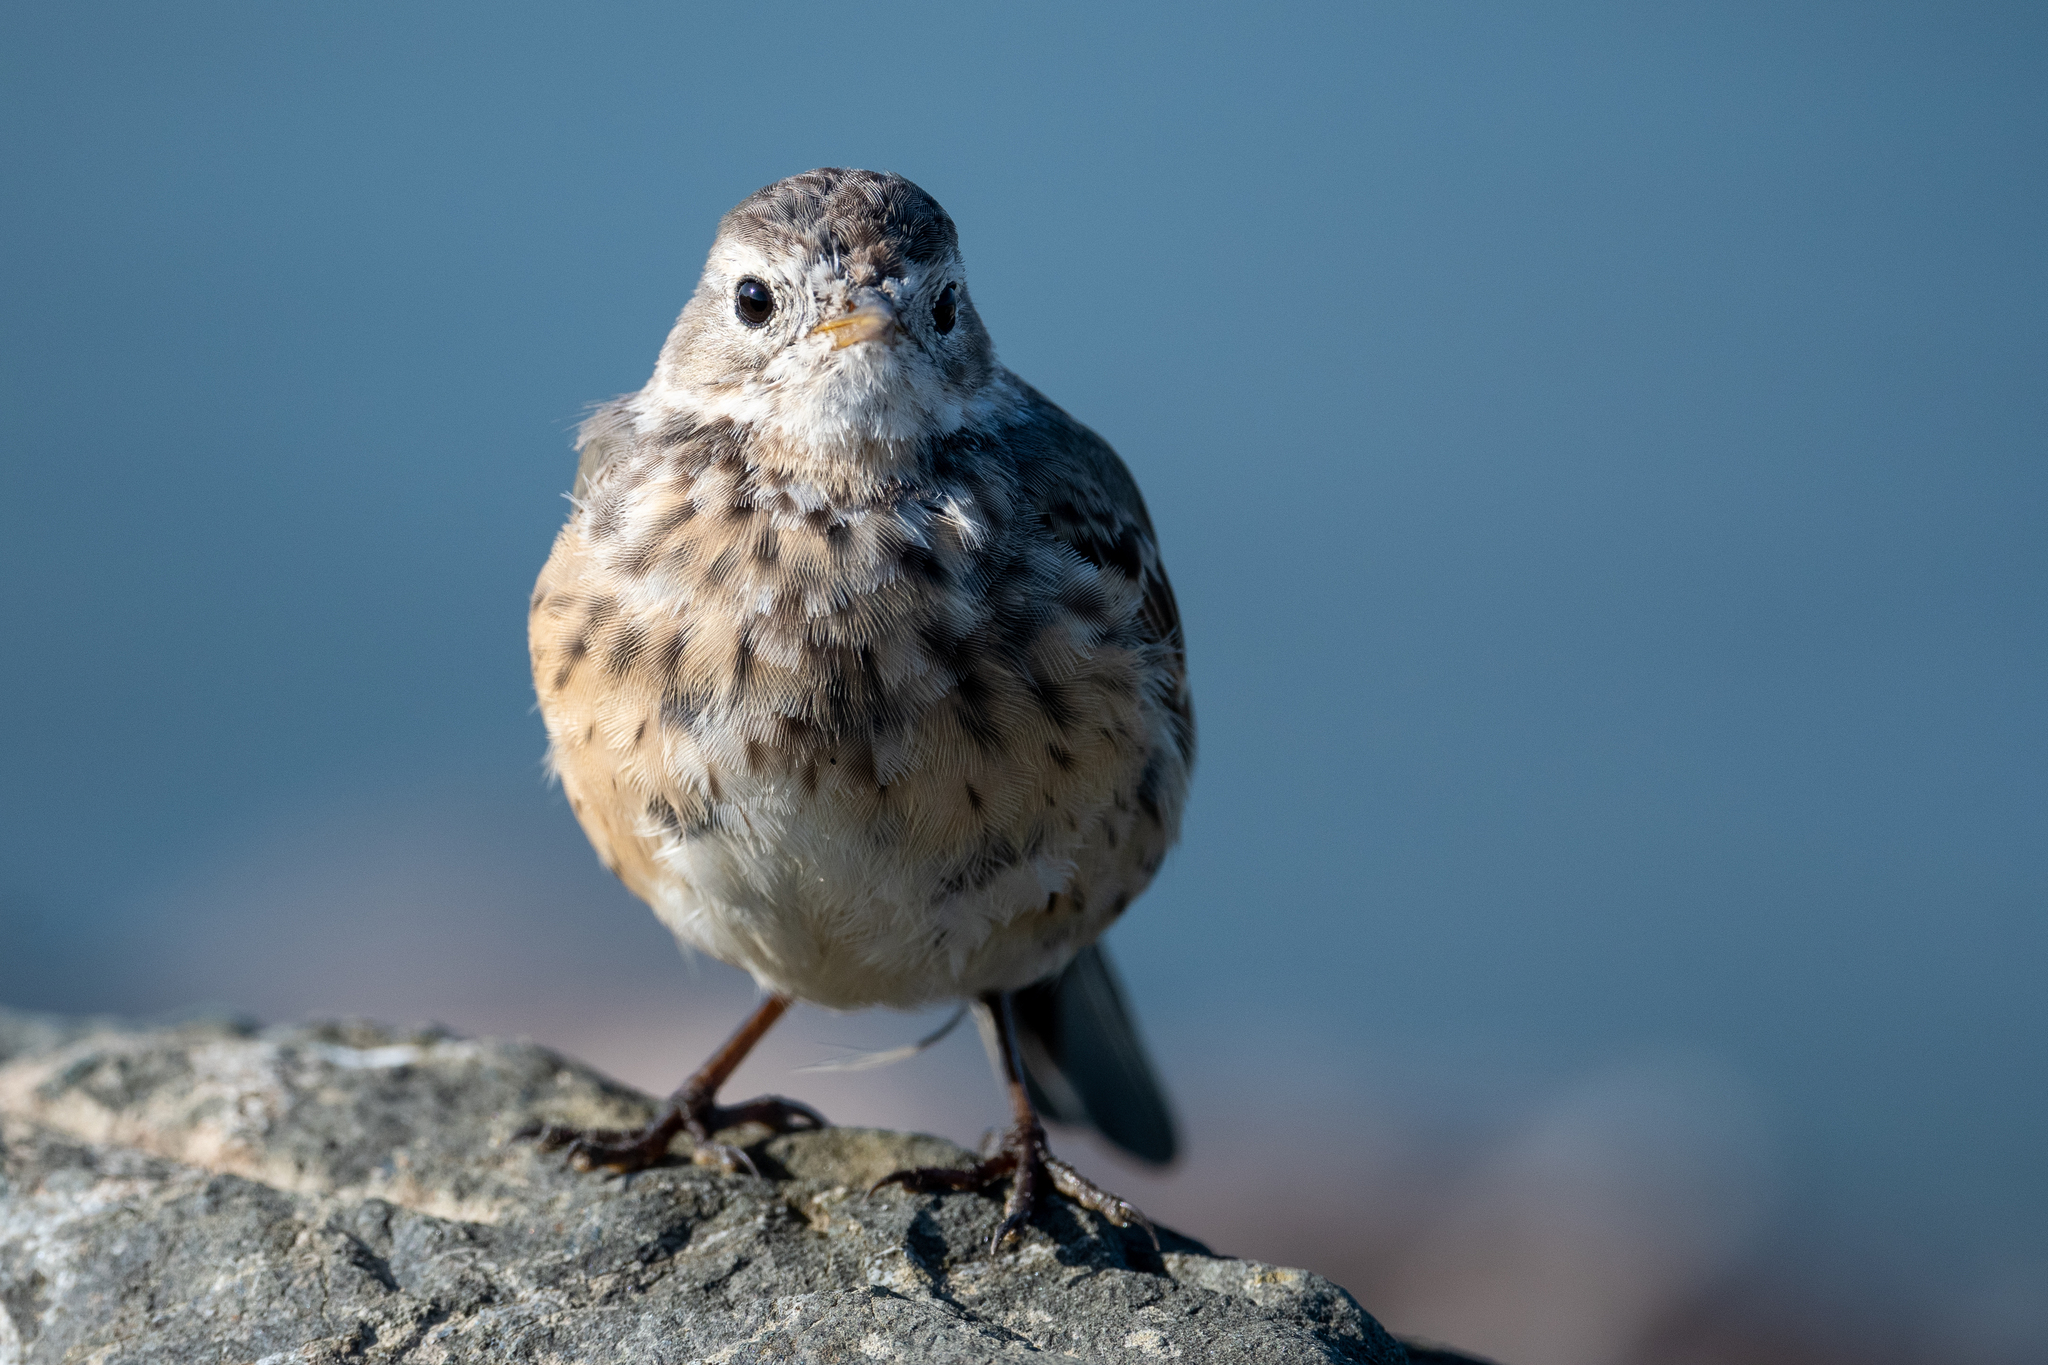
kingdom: Animalia
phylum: Chordata
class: Aves
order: Passeriformes
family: Motacillidae
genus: Anthus
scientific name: Anthus rubescens
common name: Buff-bellied pipit
